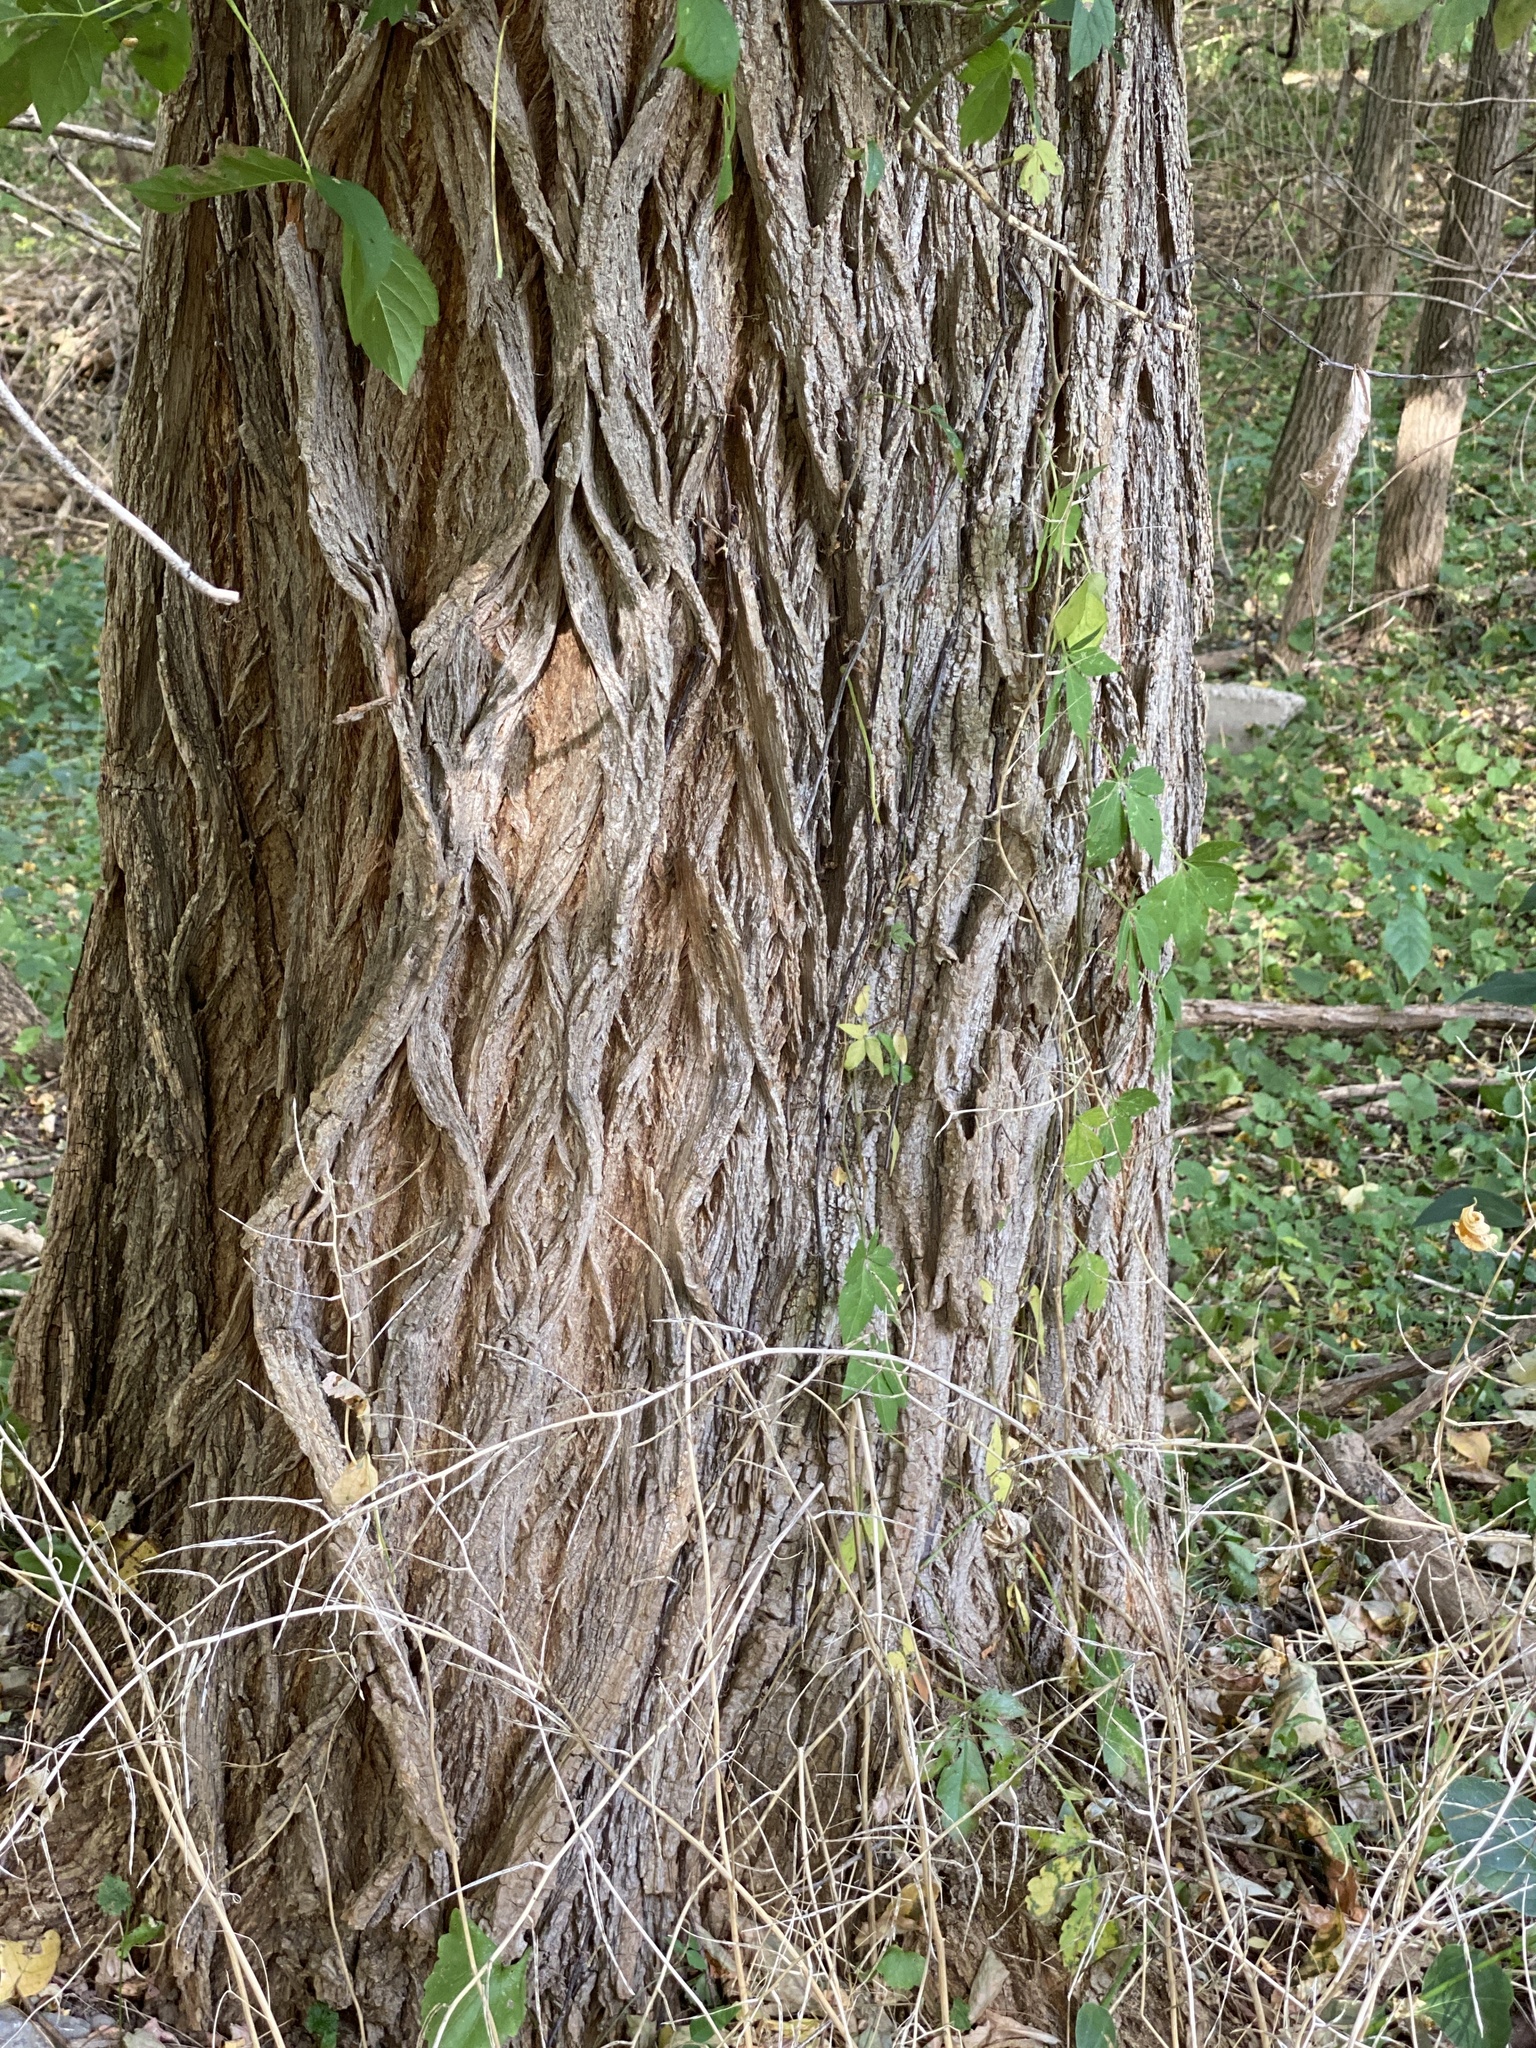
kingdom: Plantae
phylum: Tracheophyta
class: Magnoliopsida
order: Fabales
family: Fabaceae
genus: Robinia
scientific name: Robinia pseudoacacia
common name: Black locust
